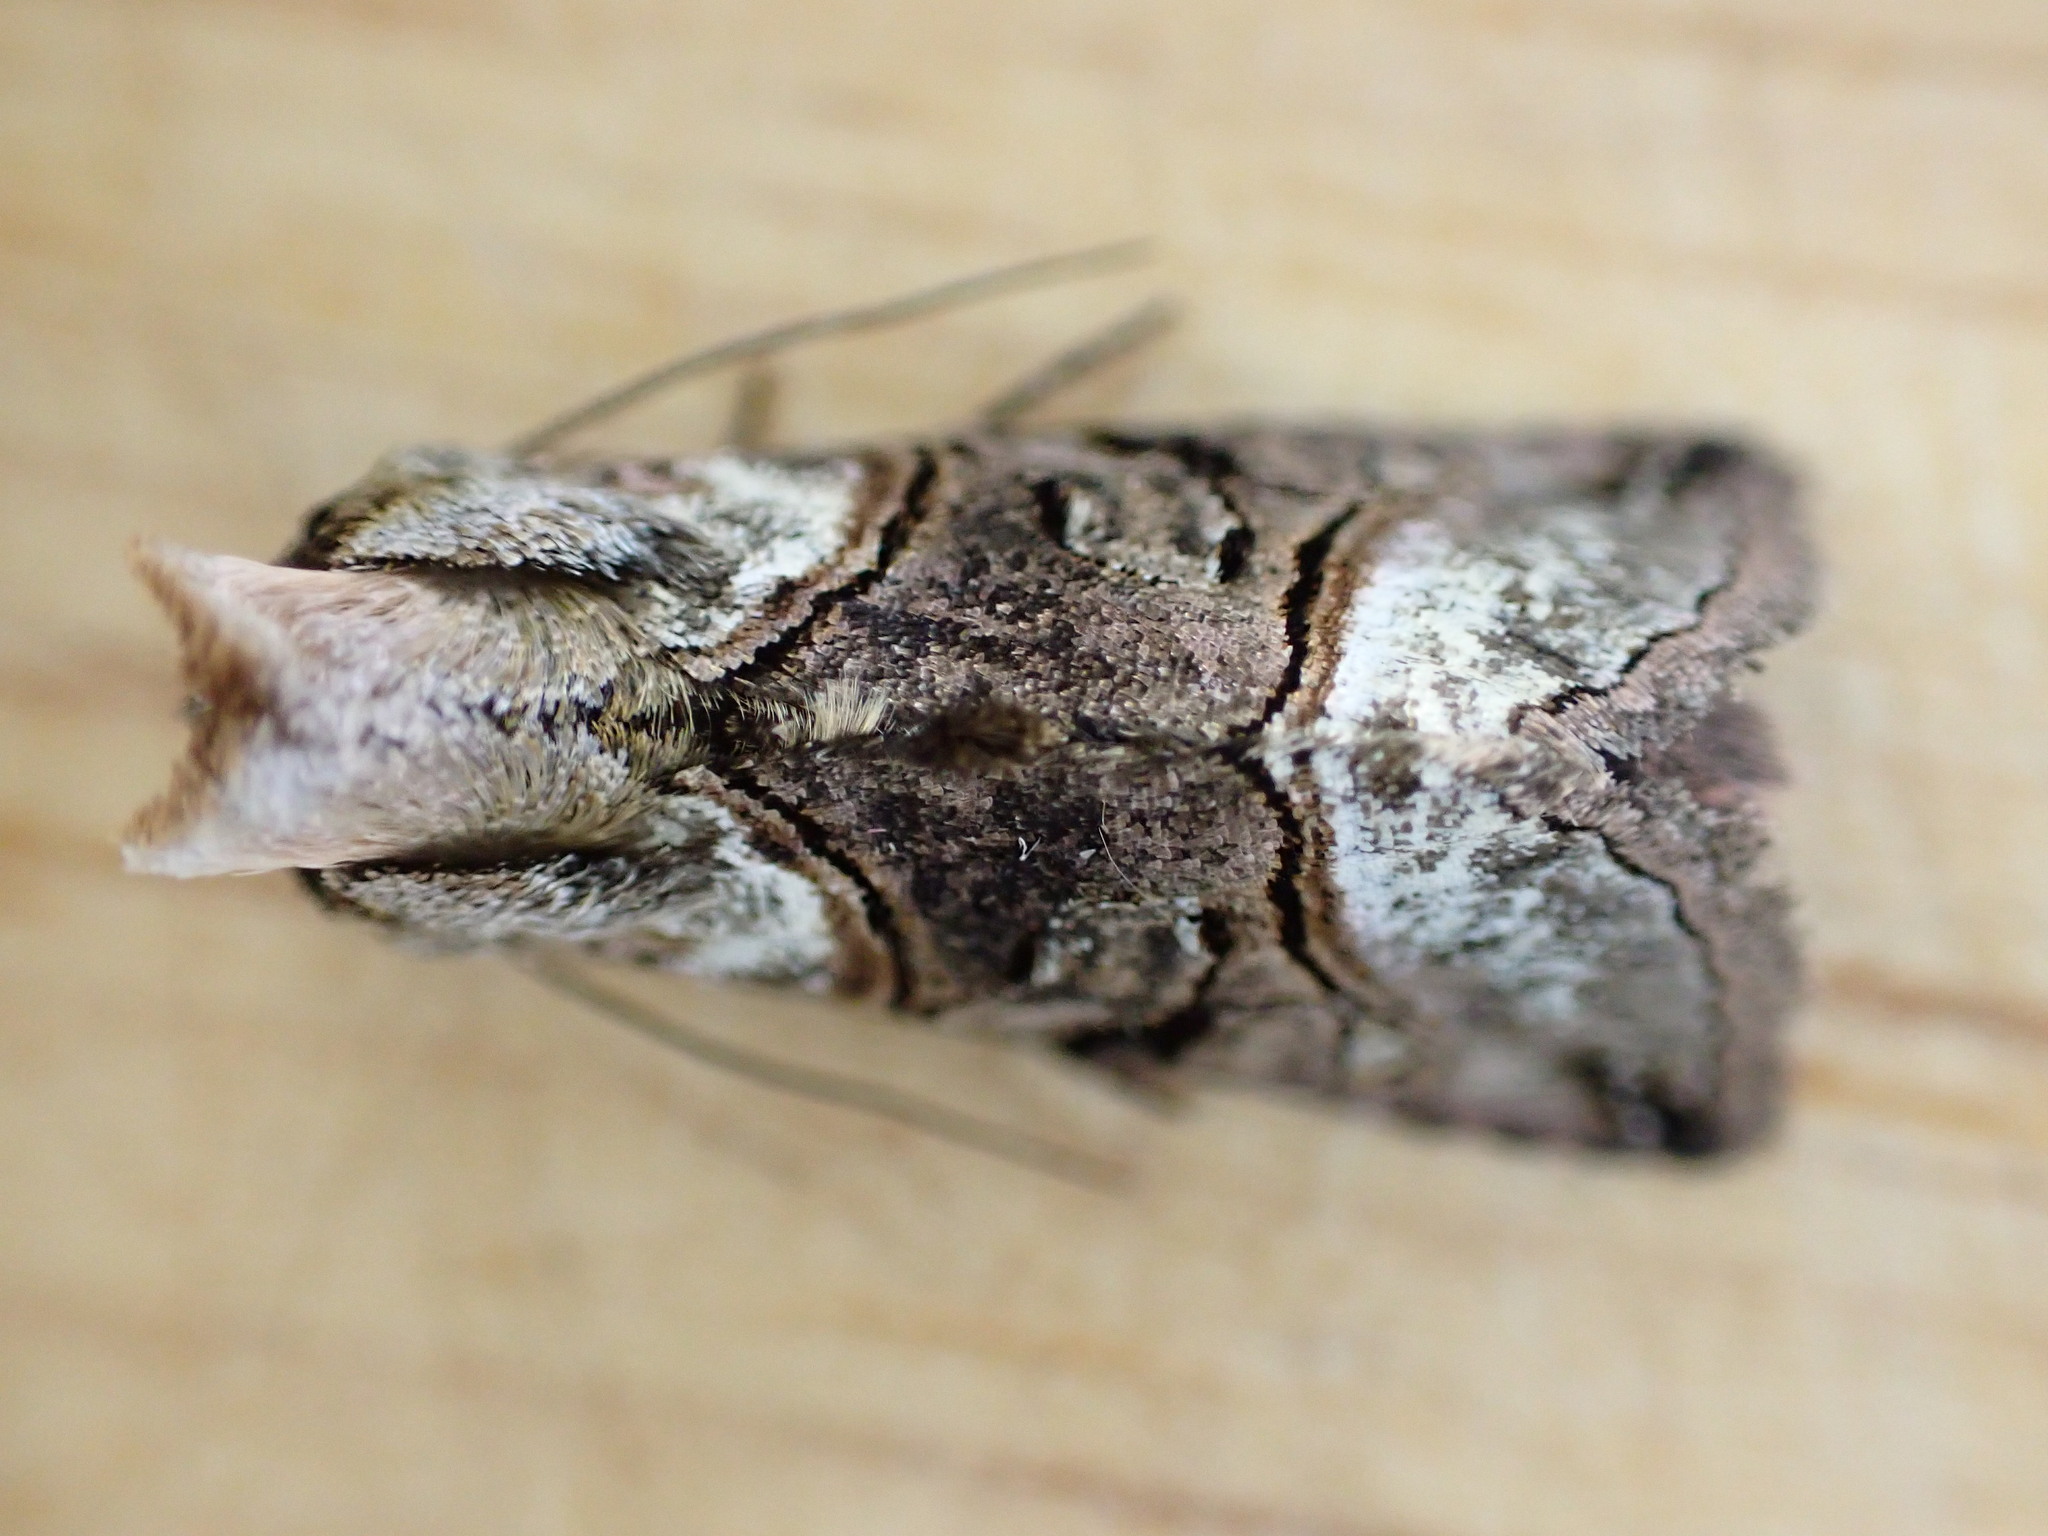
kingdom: Animalia
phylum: Arthropoda
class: Insecta
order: Lepidoptera
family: Noctuidae
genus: Abrostola
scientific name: Abrostola tripartita
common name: Spectacle
